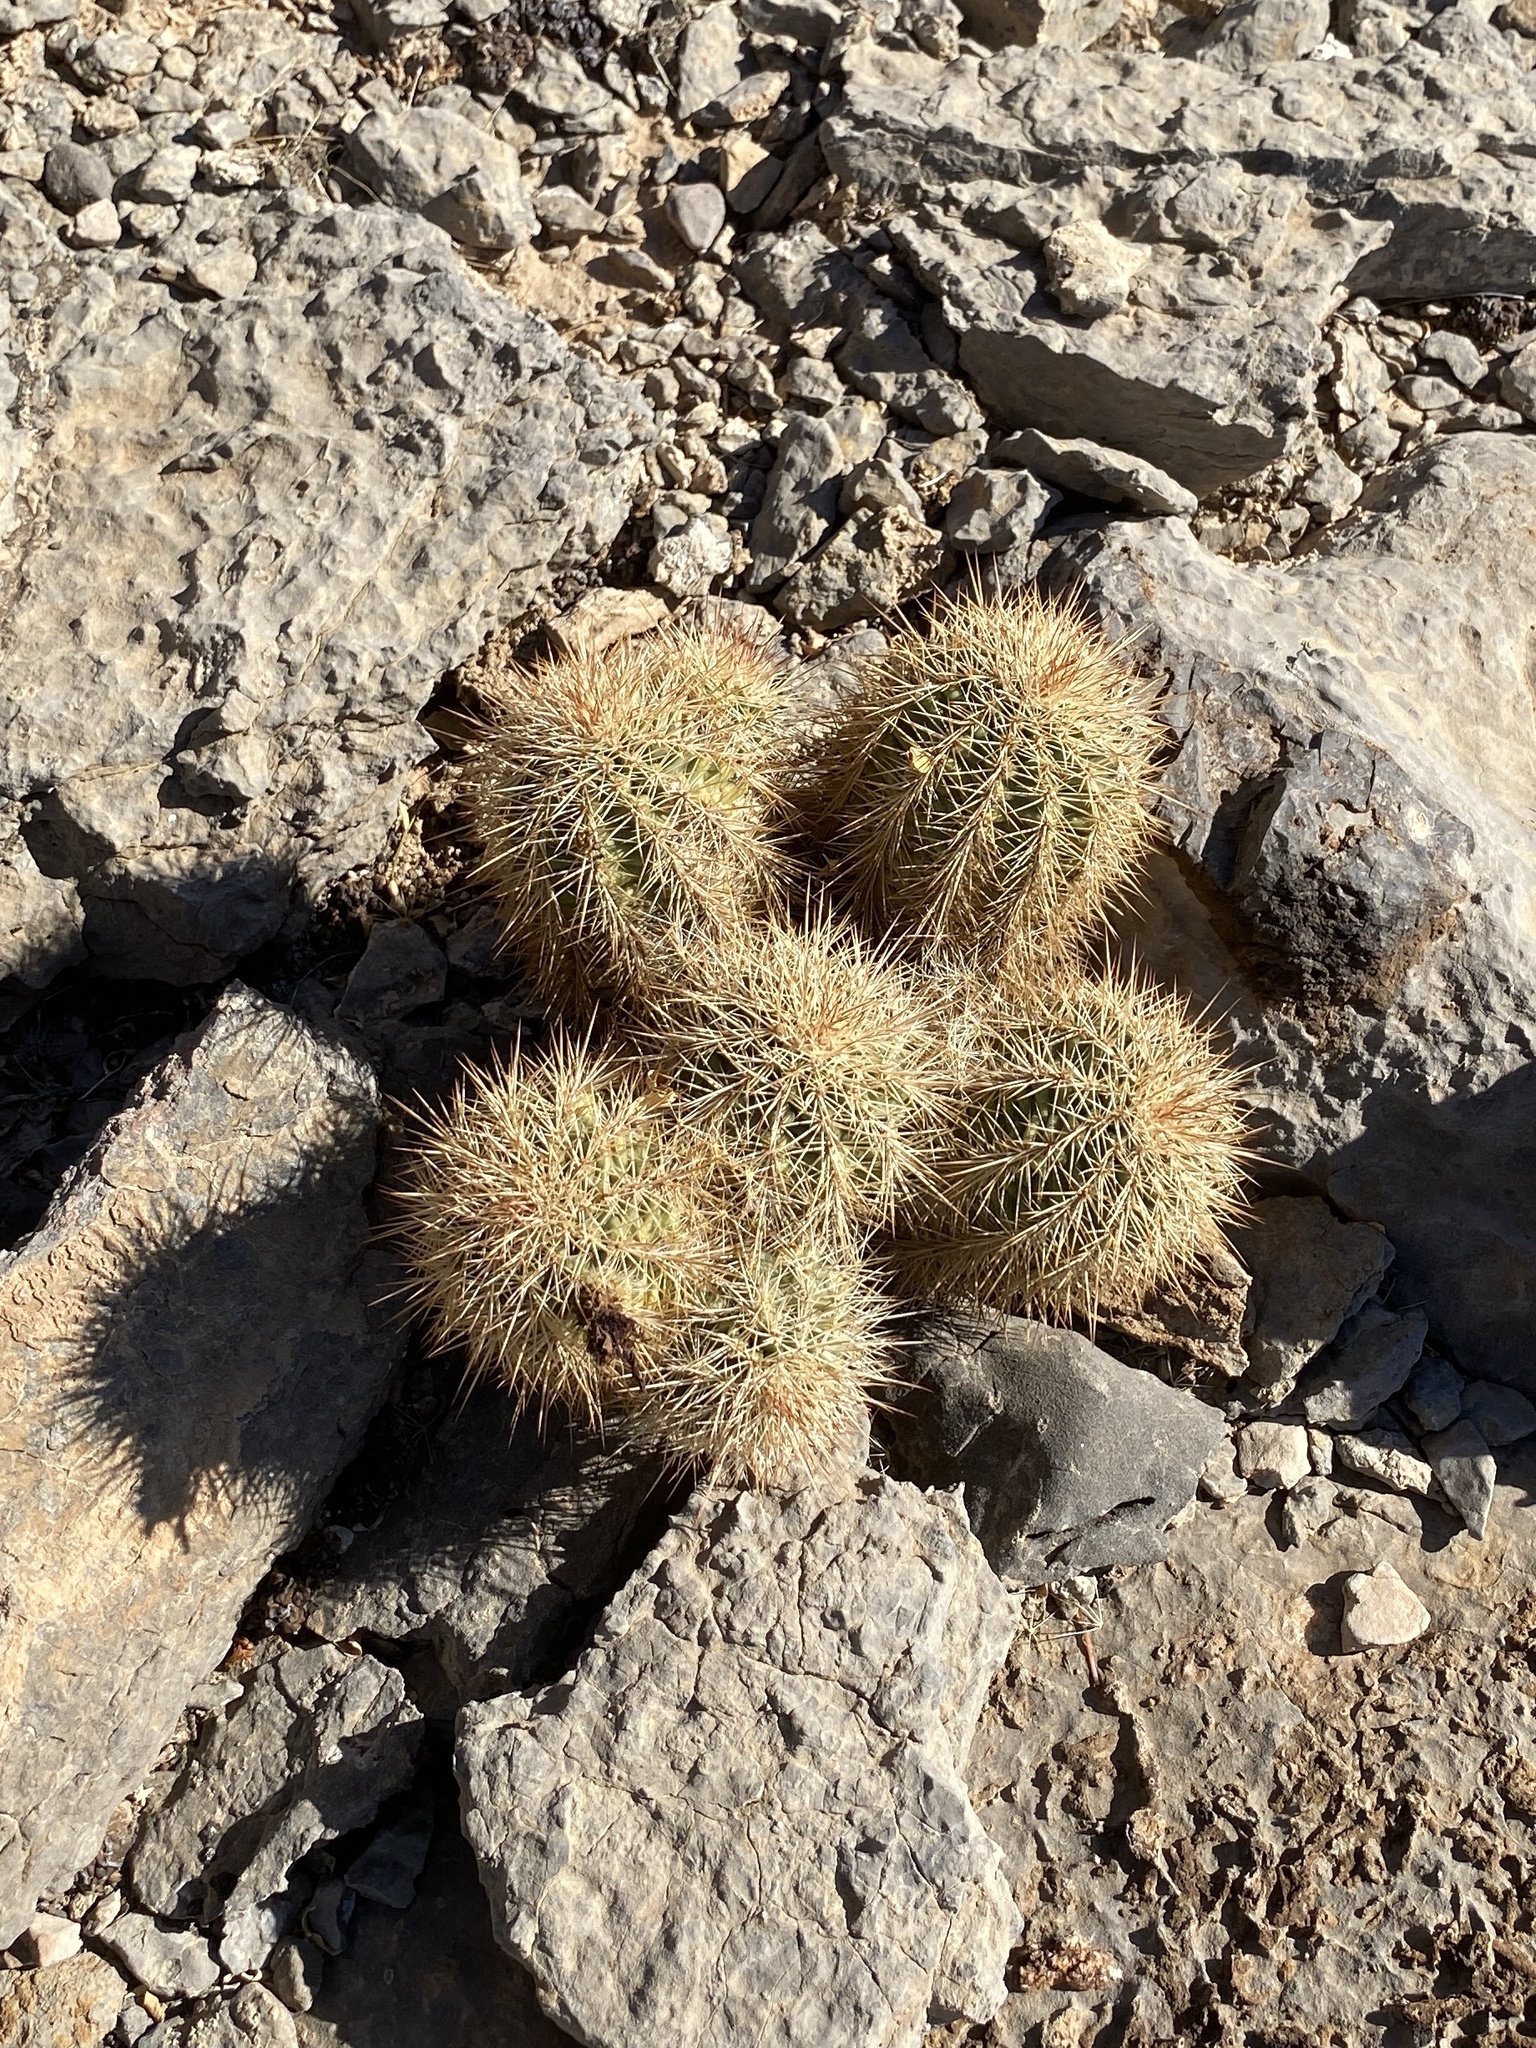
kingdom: Plantae
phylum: Tracheophyta
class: Magnoliopsida
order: Caryophyllales
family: Cactaceae
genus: Echinocereus
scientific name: Echinocereus coccineus
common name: Scarlet hedgehog cactus
